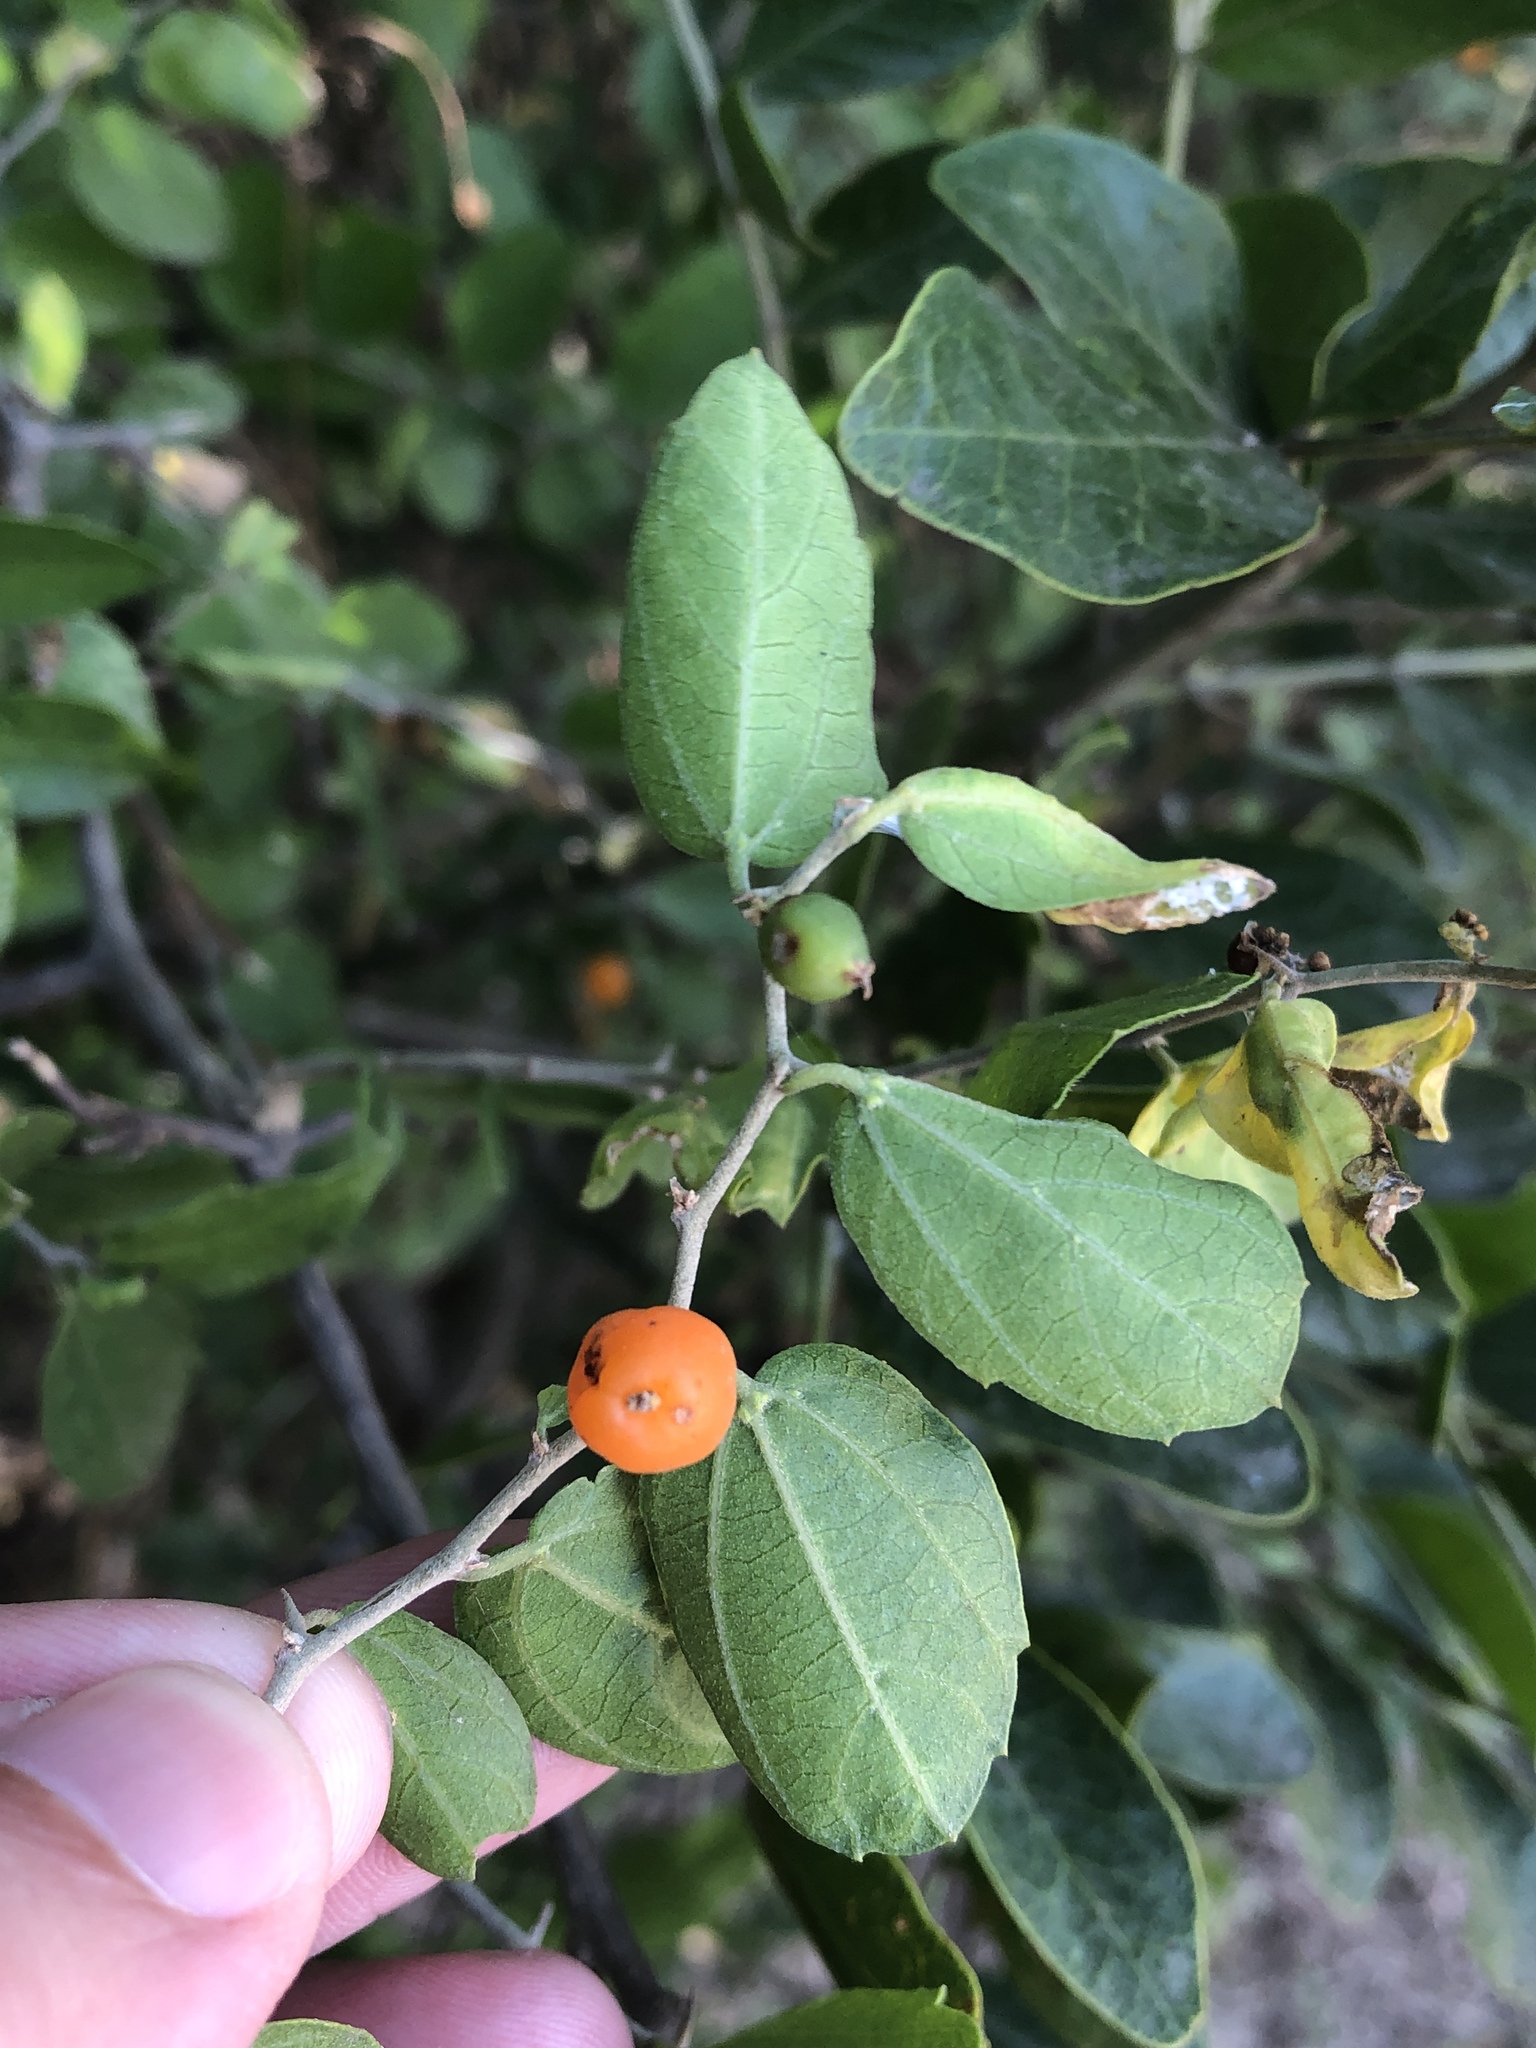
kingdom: Plantae
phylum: Tracheophyta
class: Magnoliopsida
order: Rosales
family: Cannabaceae
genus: Celtis
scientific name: Celtis pallida
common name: Desert hackberry
